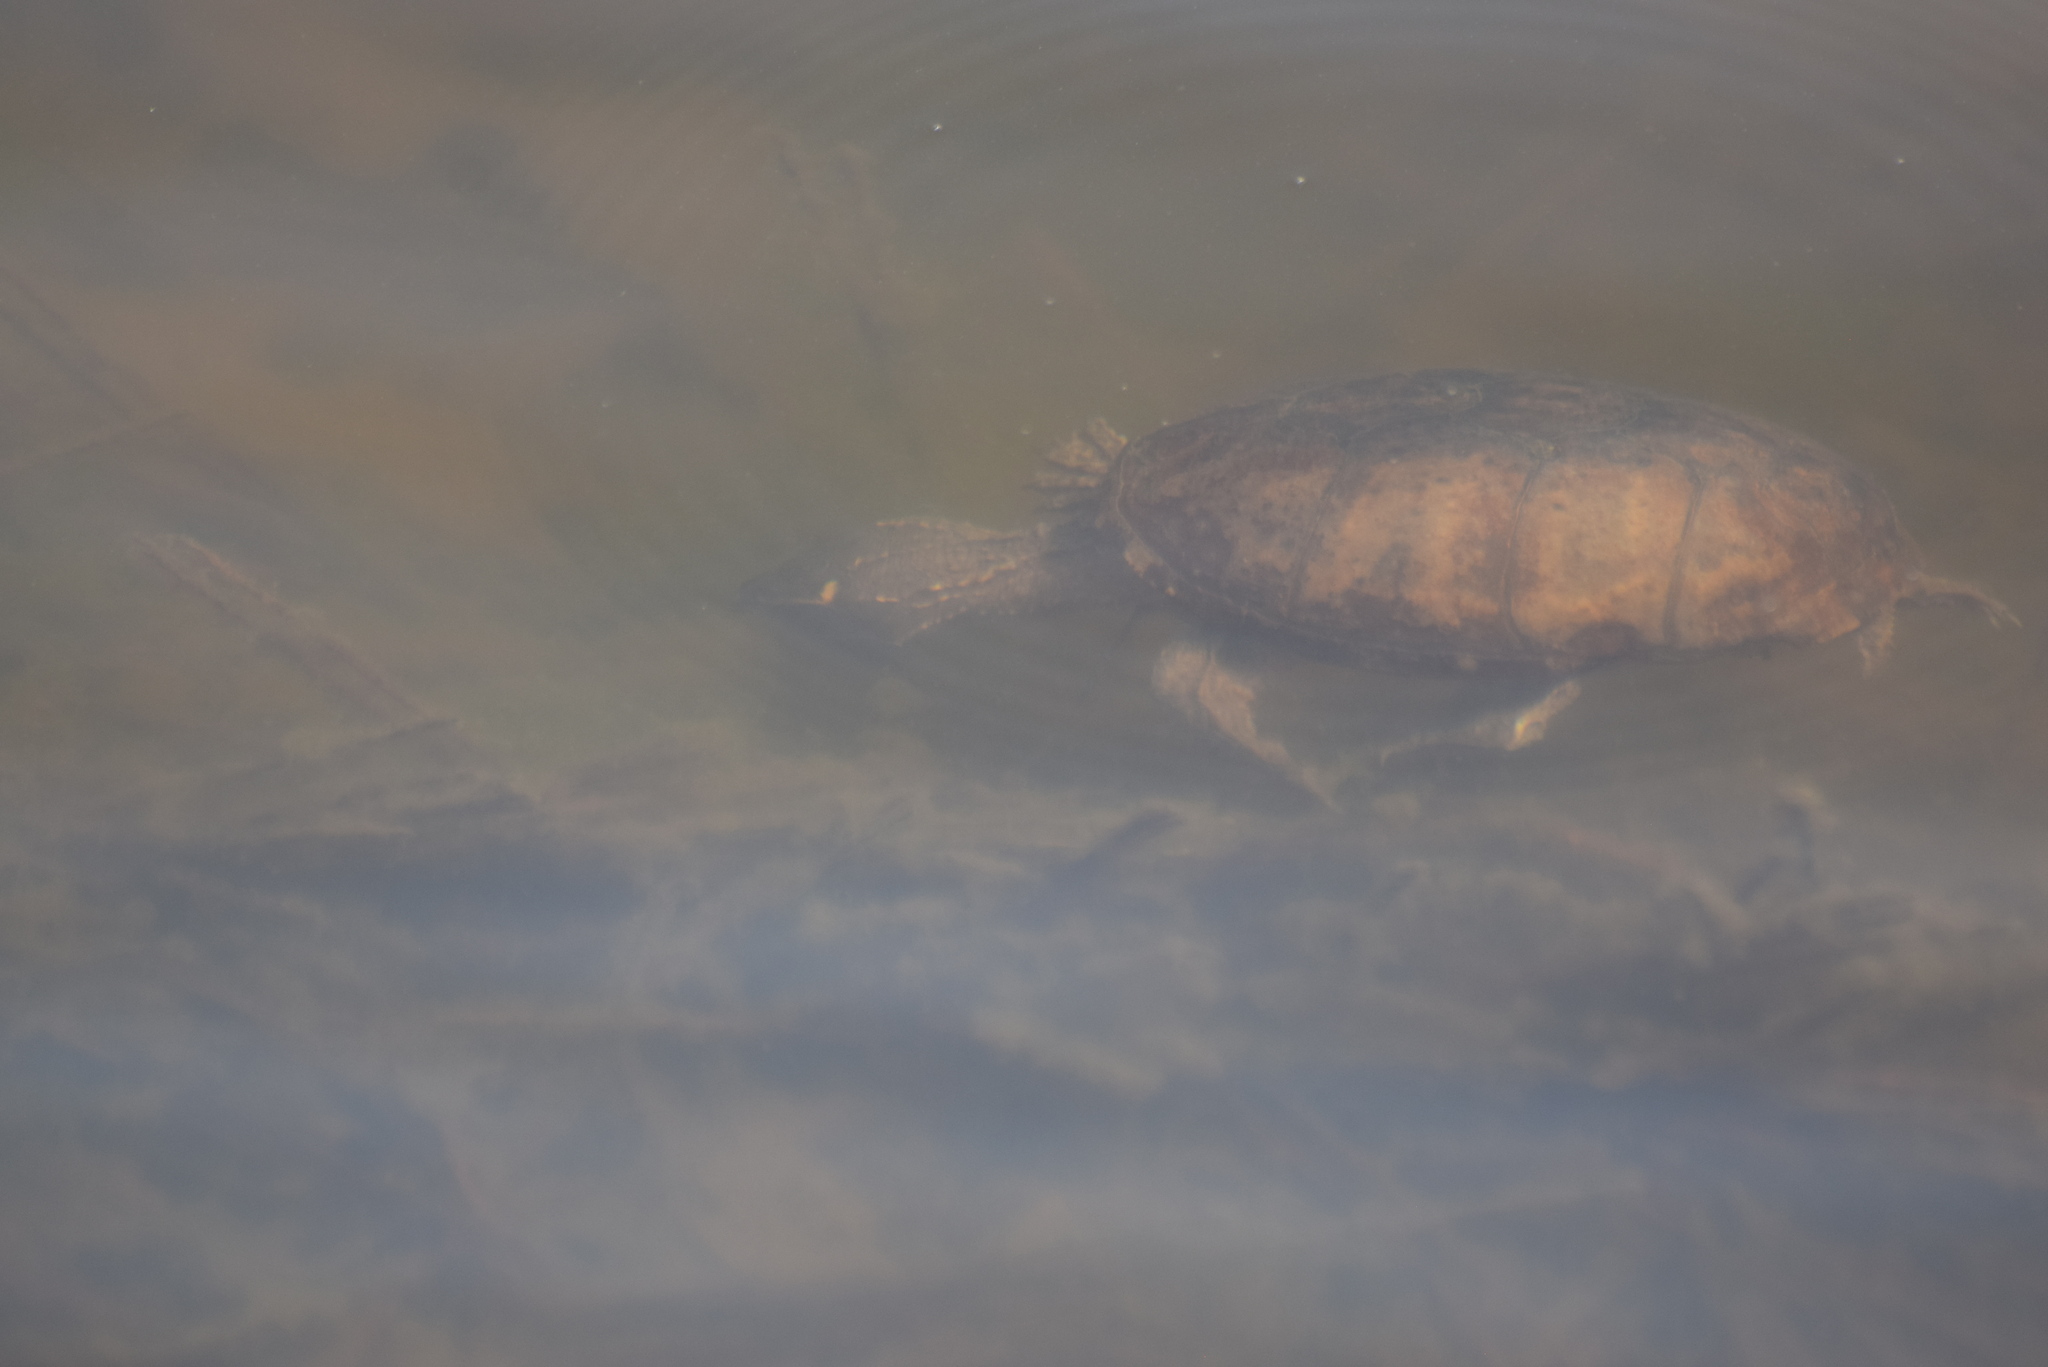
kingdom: Animalia
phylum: Chordata
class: Testudines
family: Kinosternidae
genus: Sternotherus
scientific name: Sternotherus odoratus
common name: Common musk turtle
